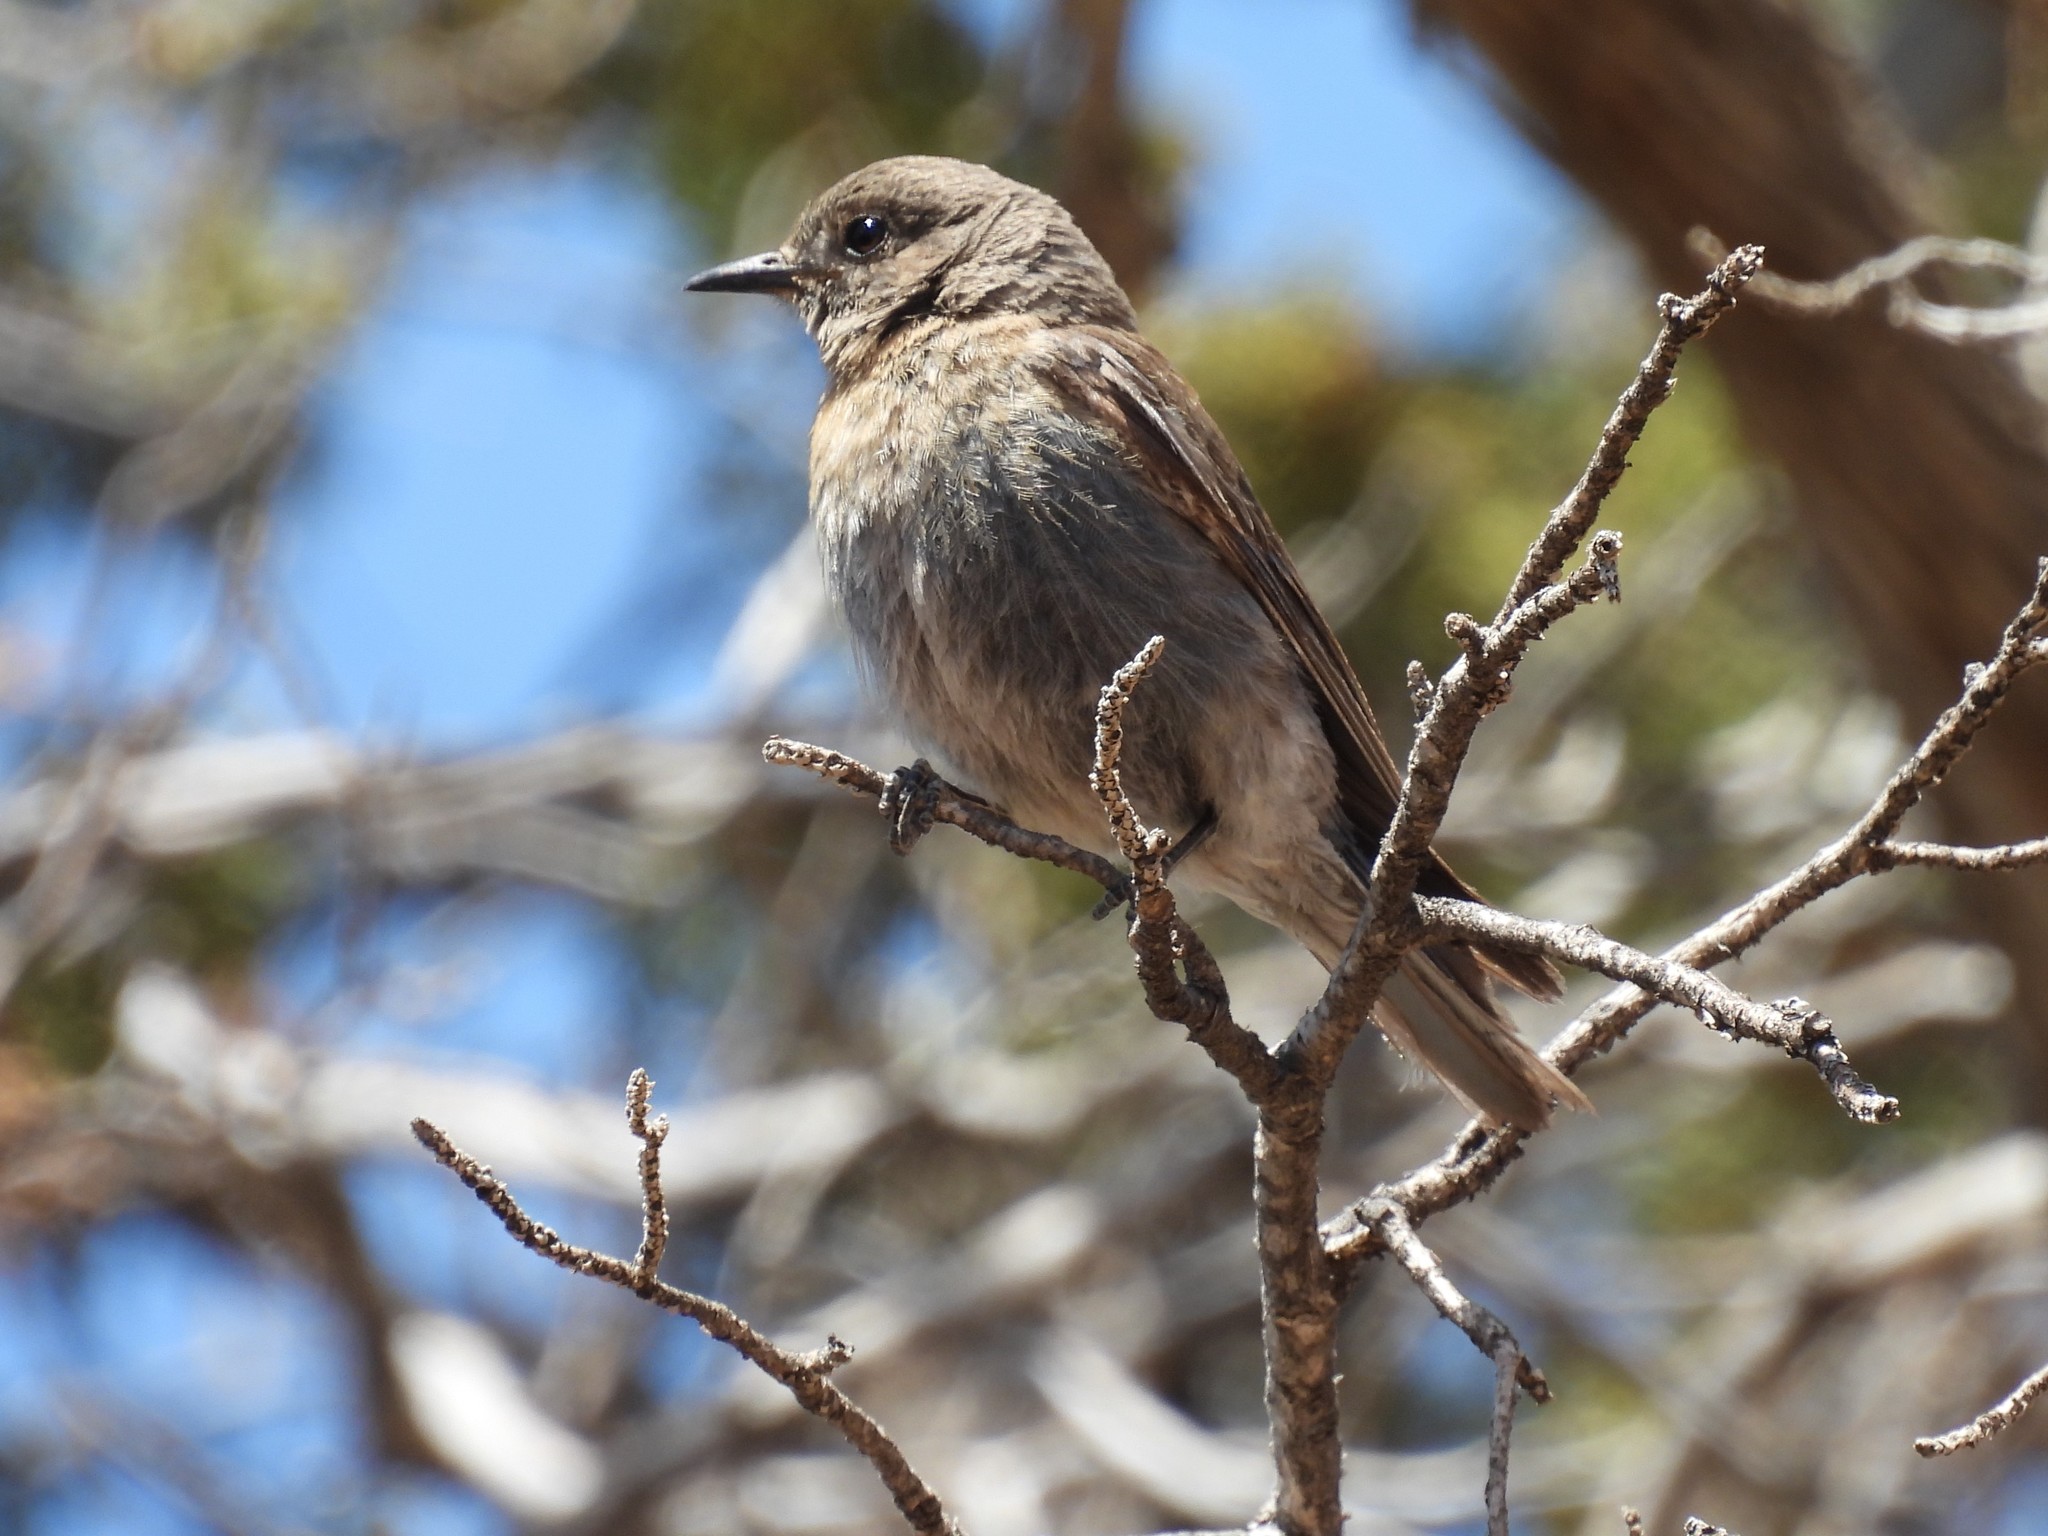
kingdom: Animalia
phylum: Chordata
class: Aves
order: Passeriformes
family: Turdidae
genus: Sialia
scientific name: Sialia mexicana
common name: Western bluebird
